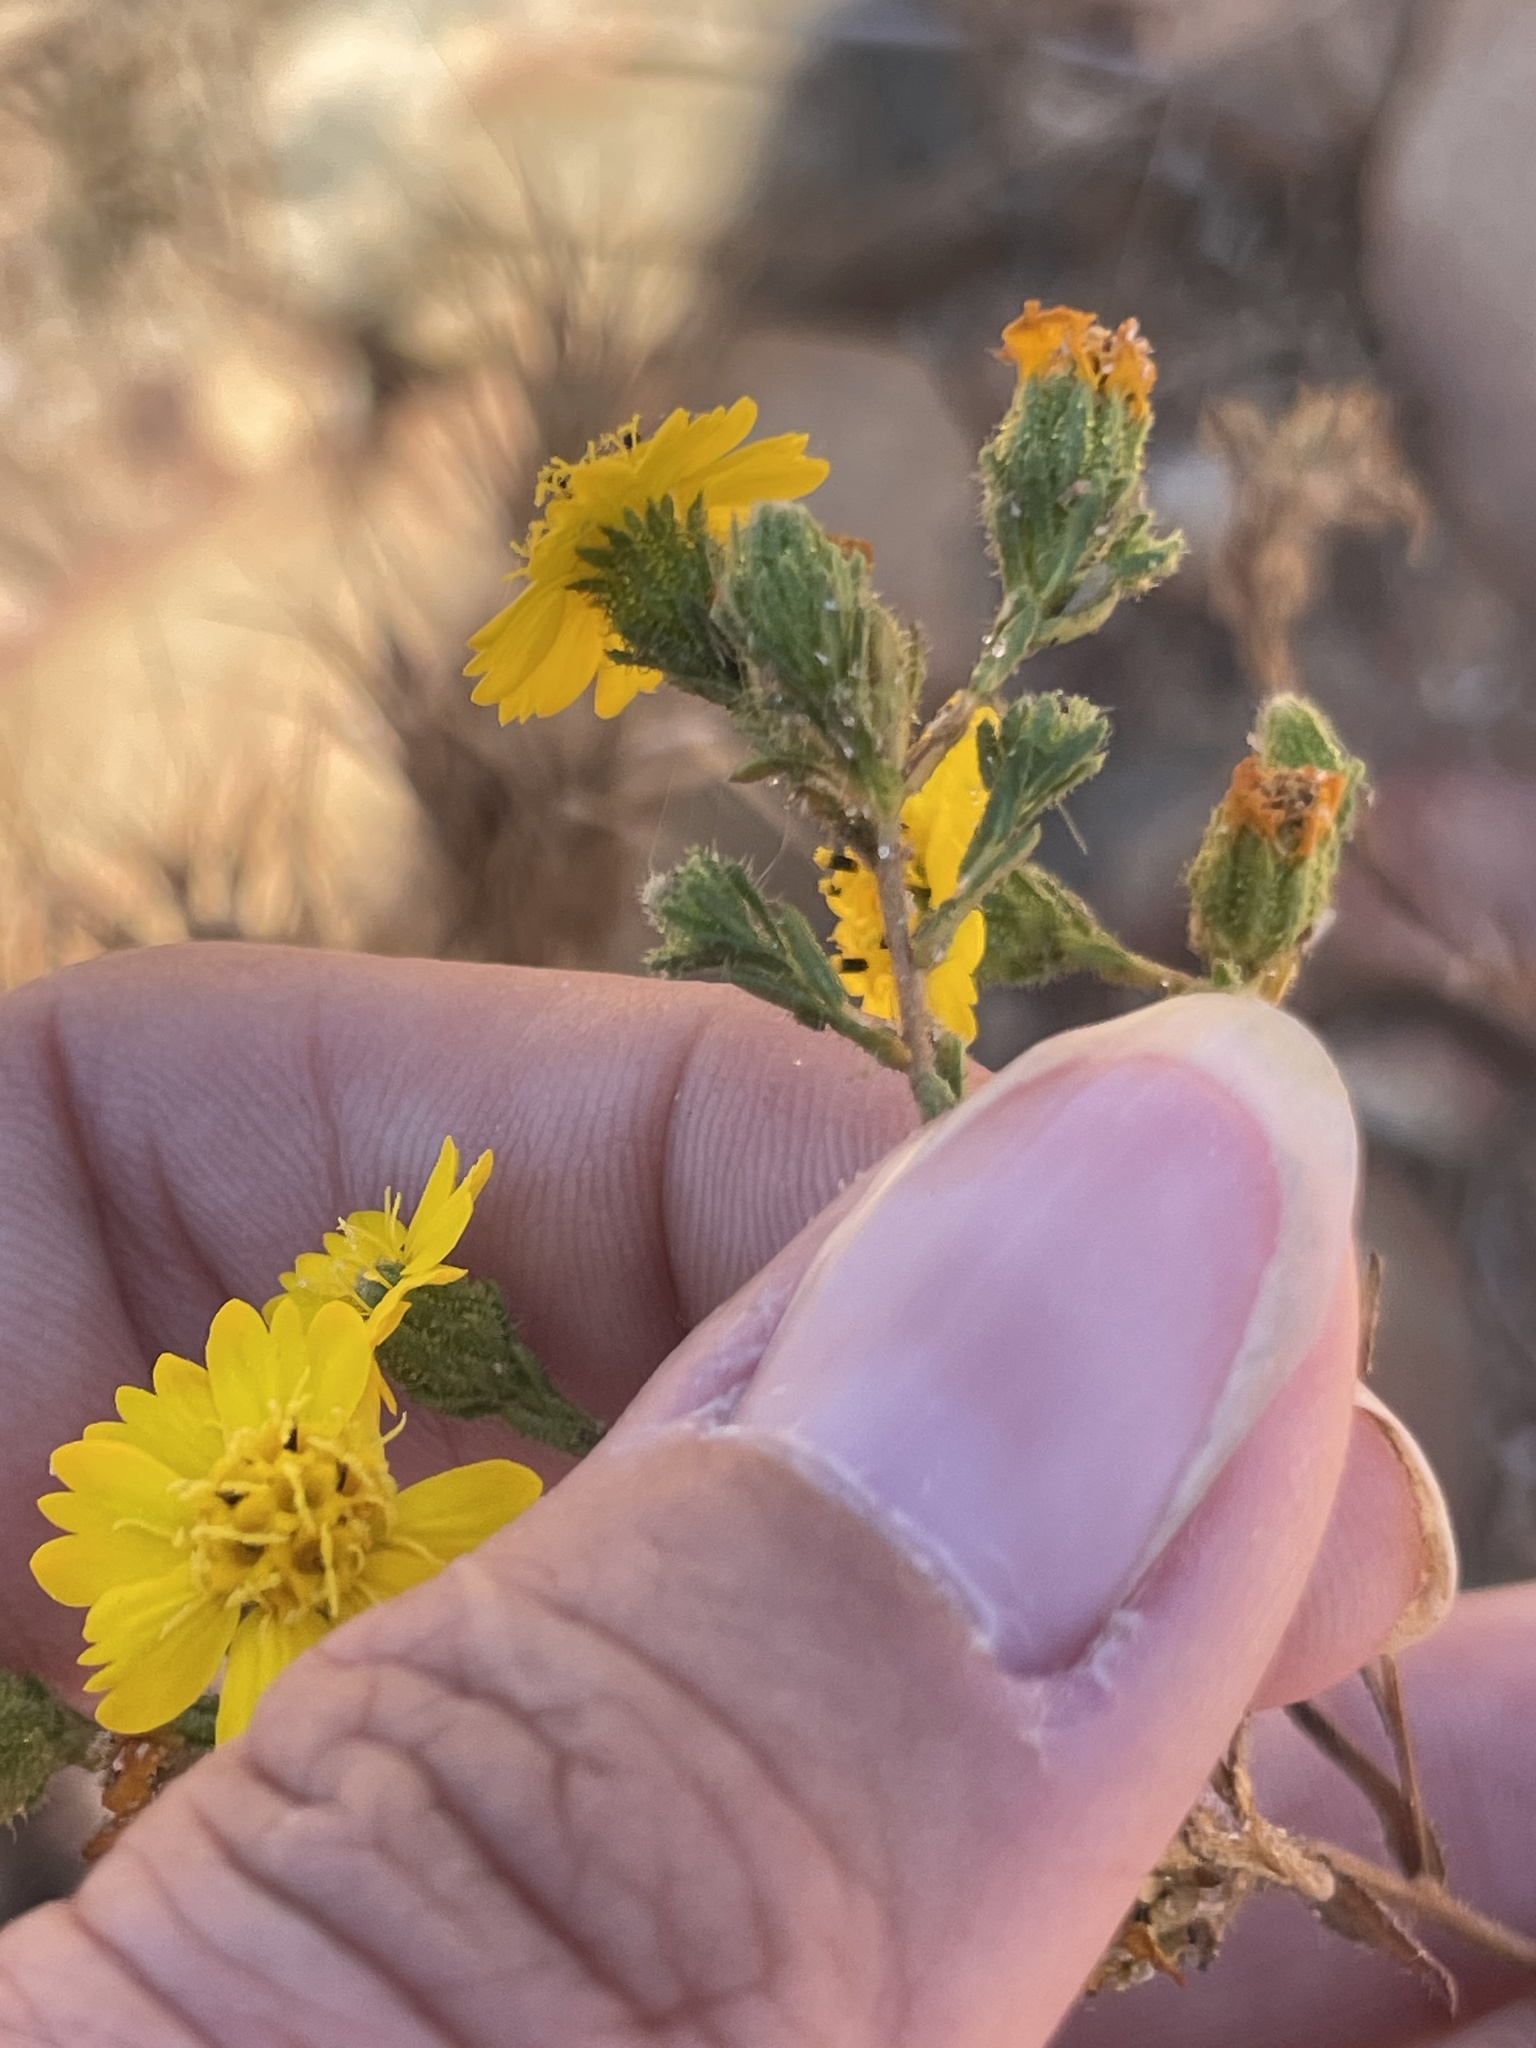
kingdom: Plantae
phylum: Tracheophyta
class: Magnoliopsida
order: Asterales
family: Asteraceae
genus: Deinandra
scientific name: Deinandra conjugens
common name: Otay tarplant
